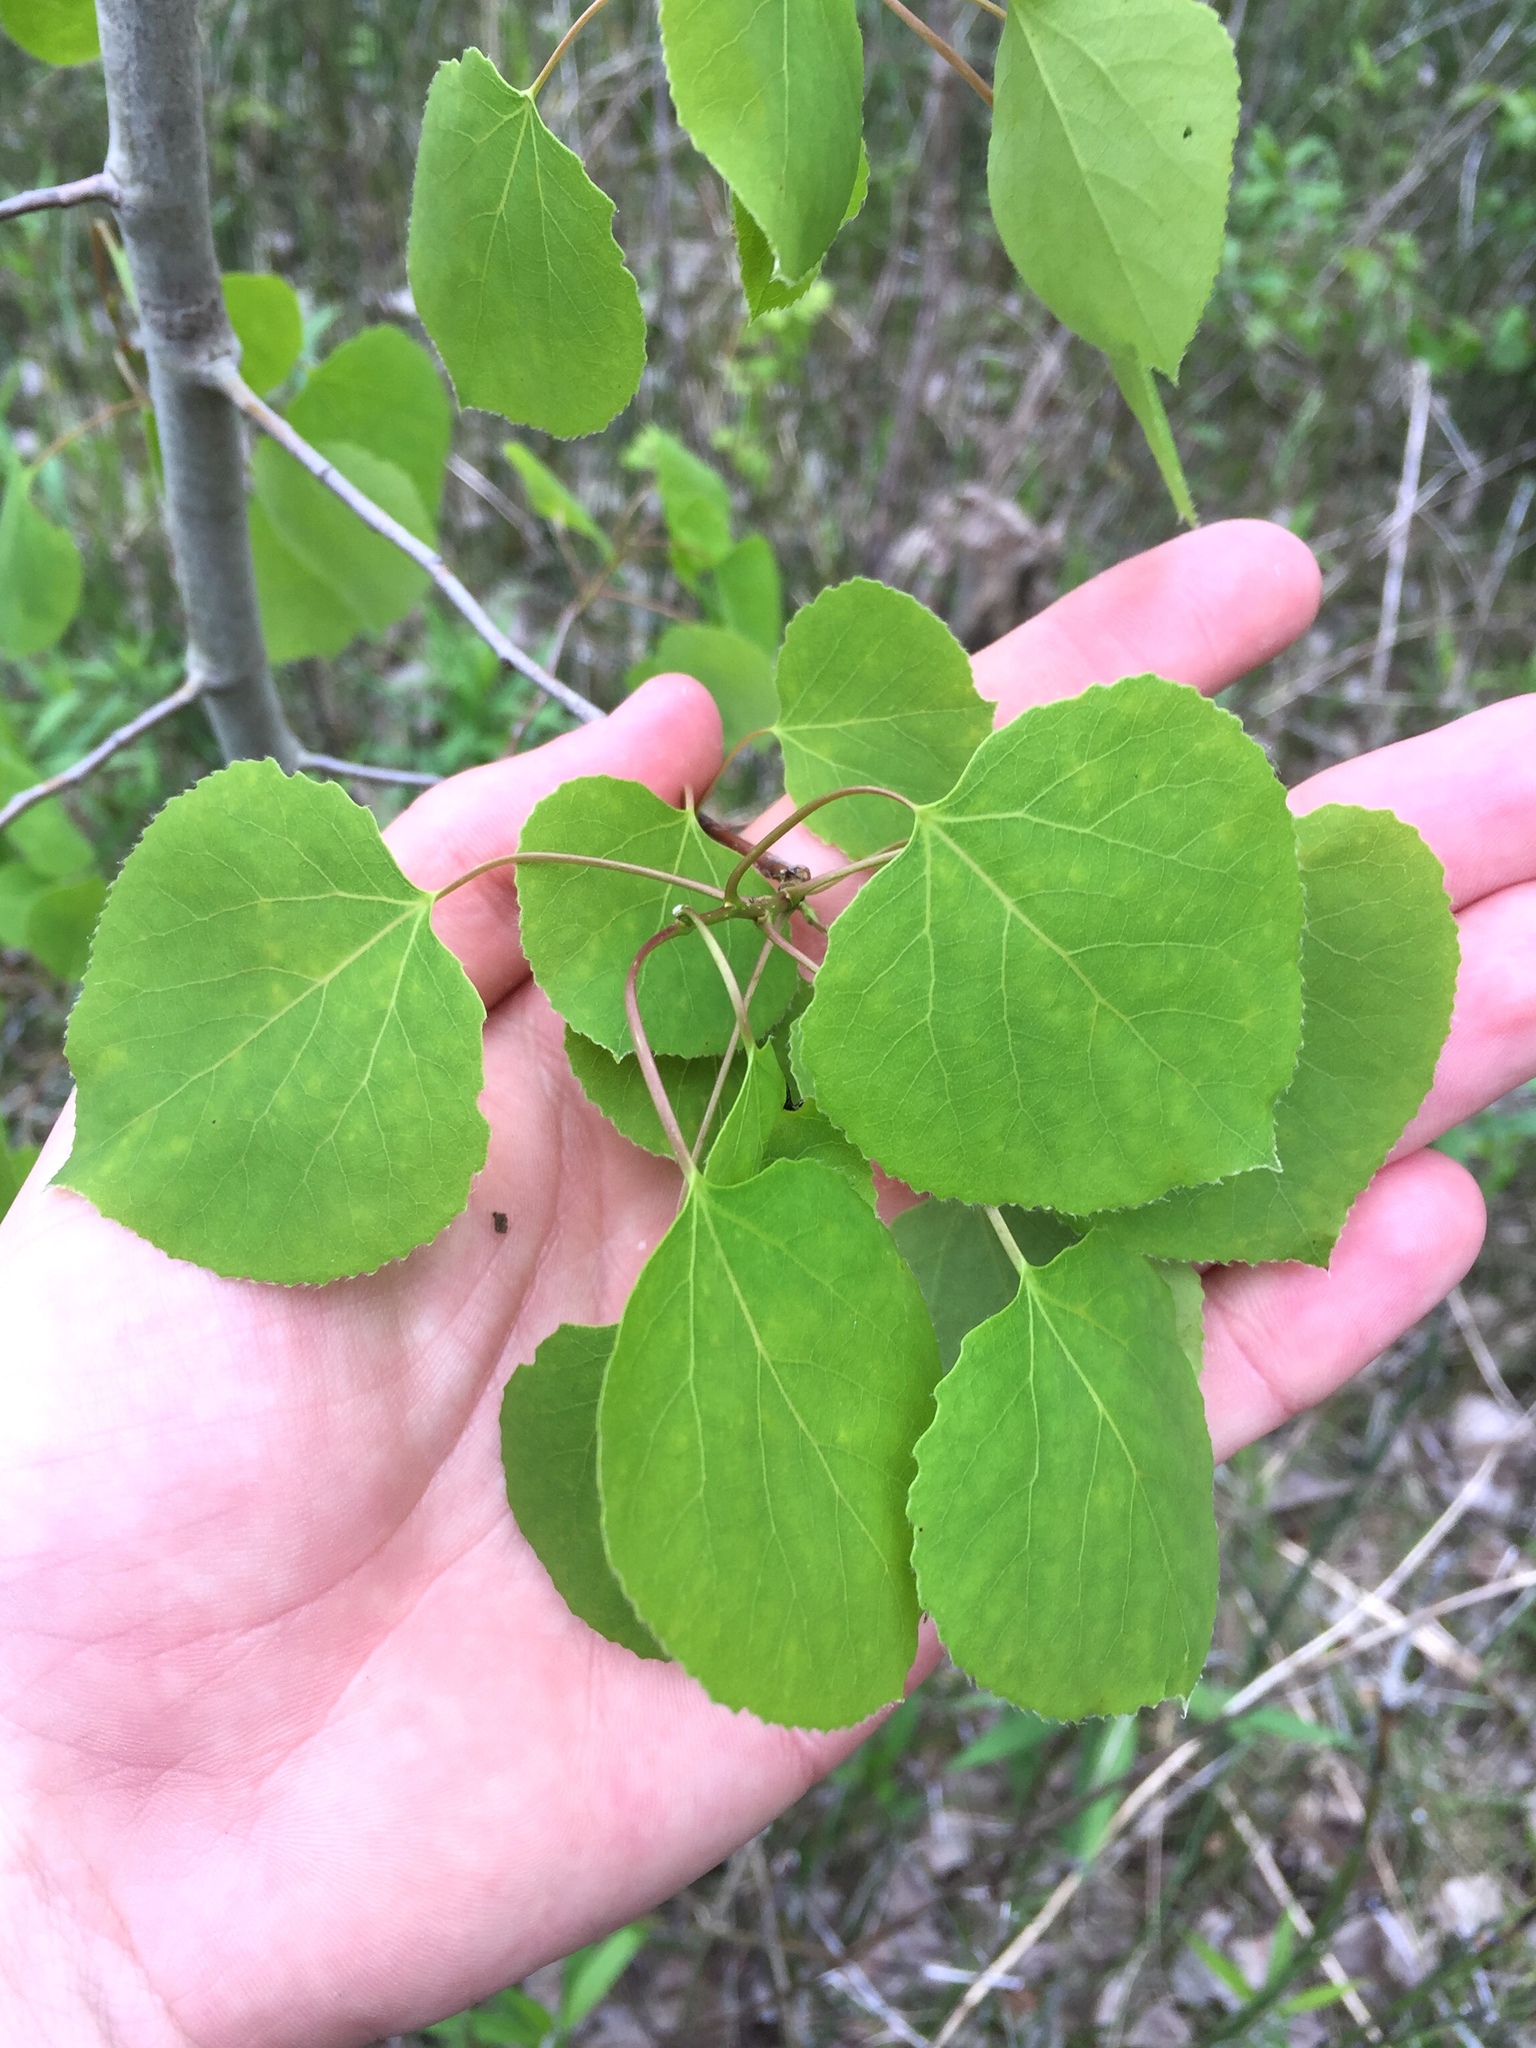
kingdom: Plantae
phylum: Tracheophyta
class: Magnoliopsida
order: Malpighiales
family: Salicaceae
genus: Populus
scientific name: Populus tremuloides
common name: Quaking aspen
